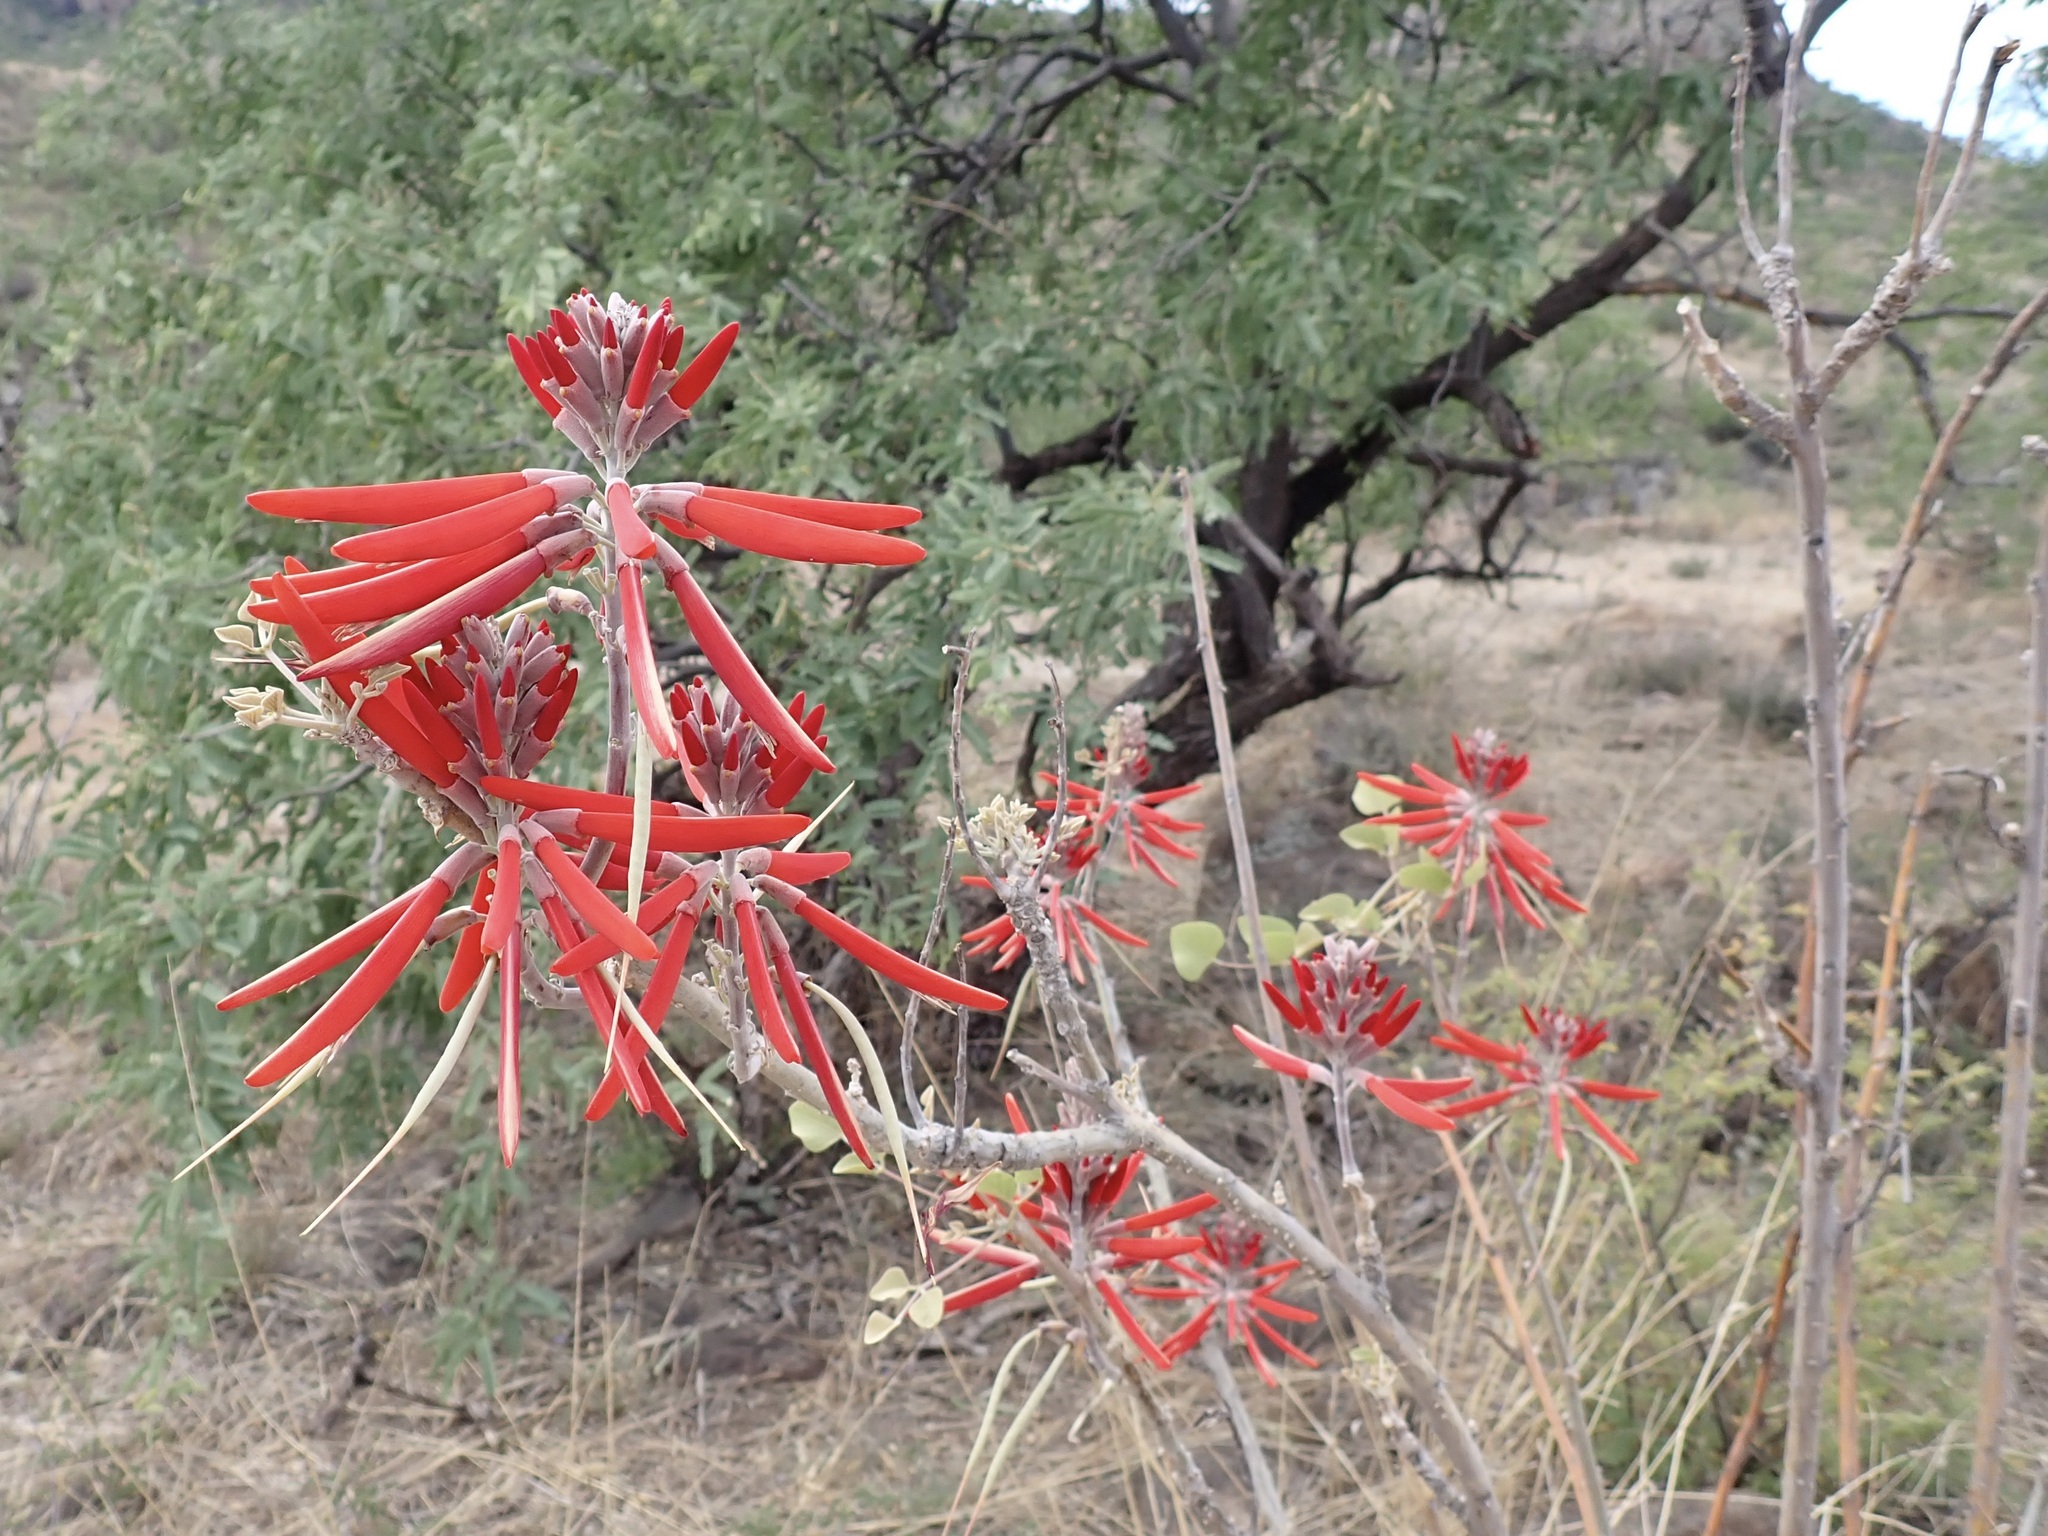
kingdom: Plantae
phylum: Tracheophyta
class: Magnoliopsida
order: Fabales
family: Fabaceae
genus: Erythrina
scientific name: Erythrina flabelliformis
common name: Chilicote
